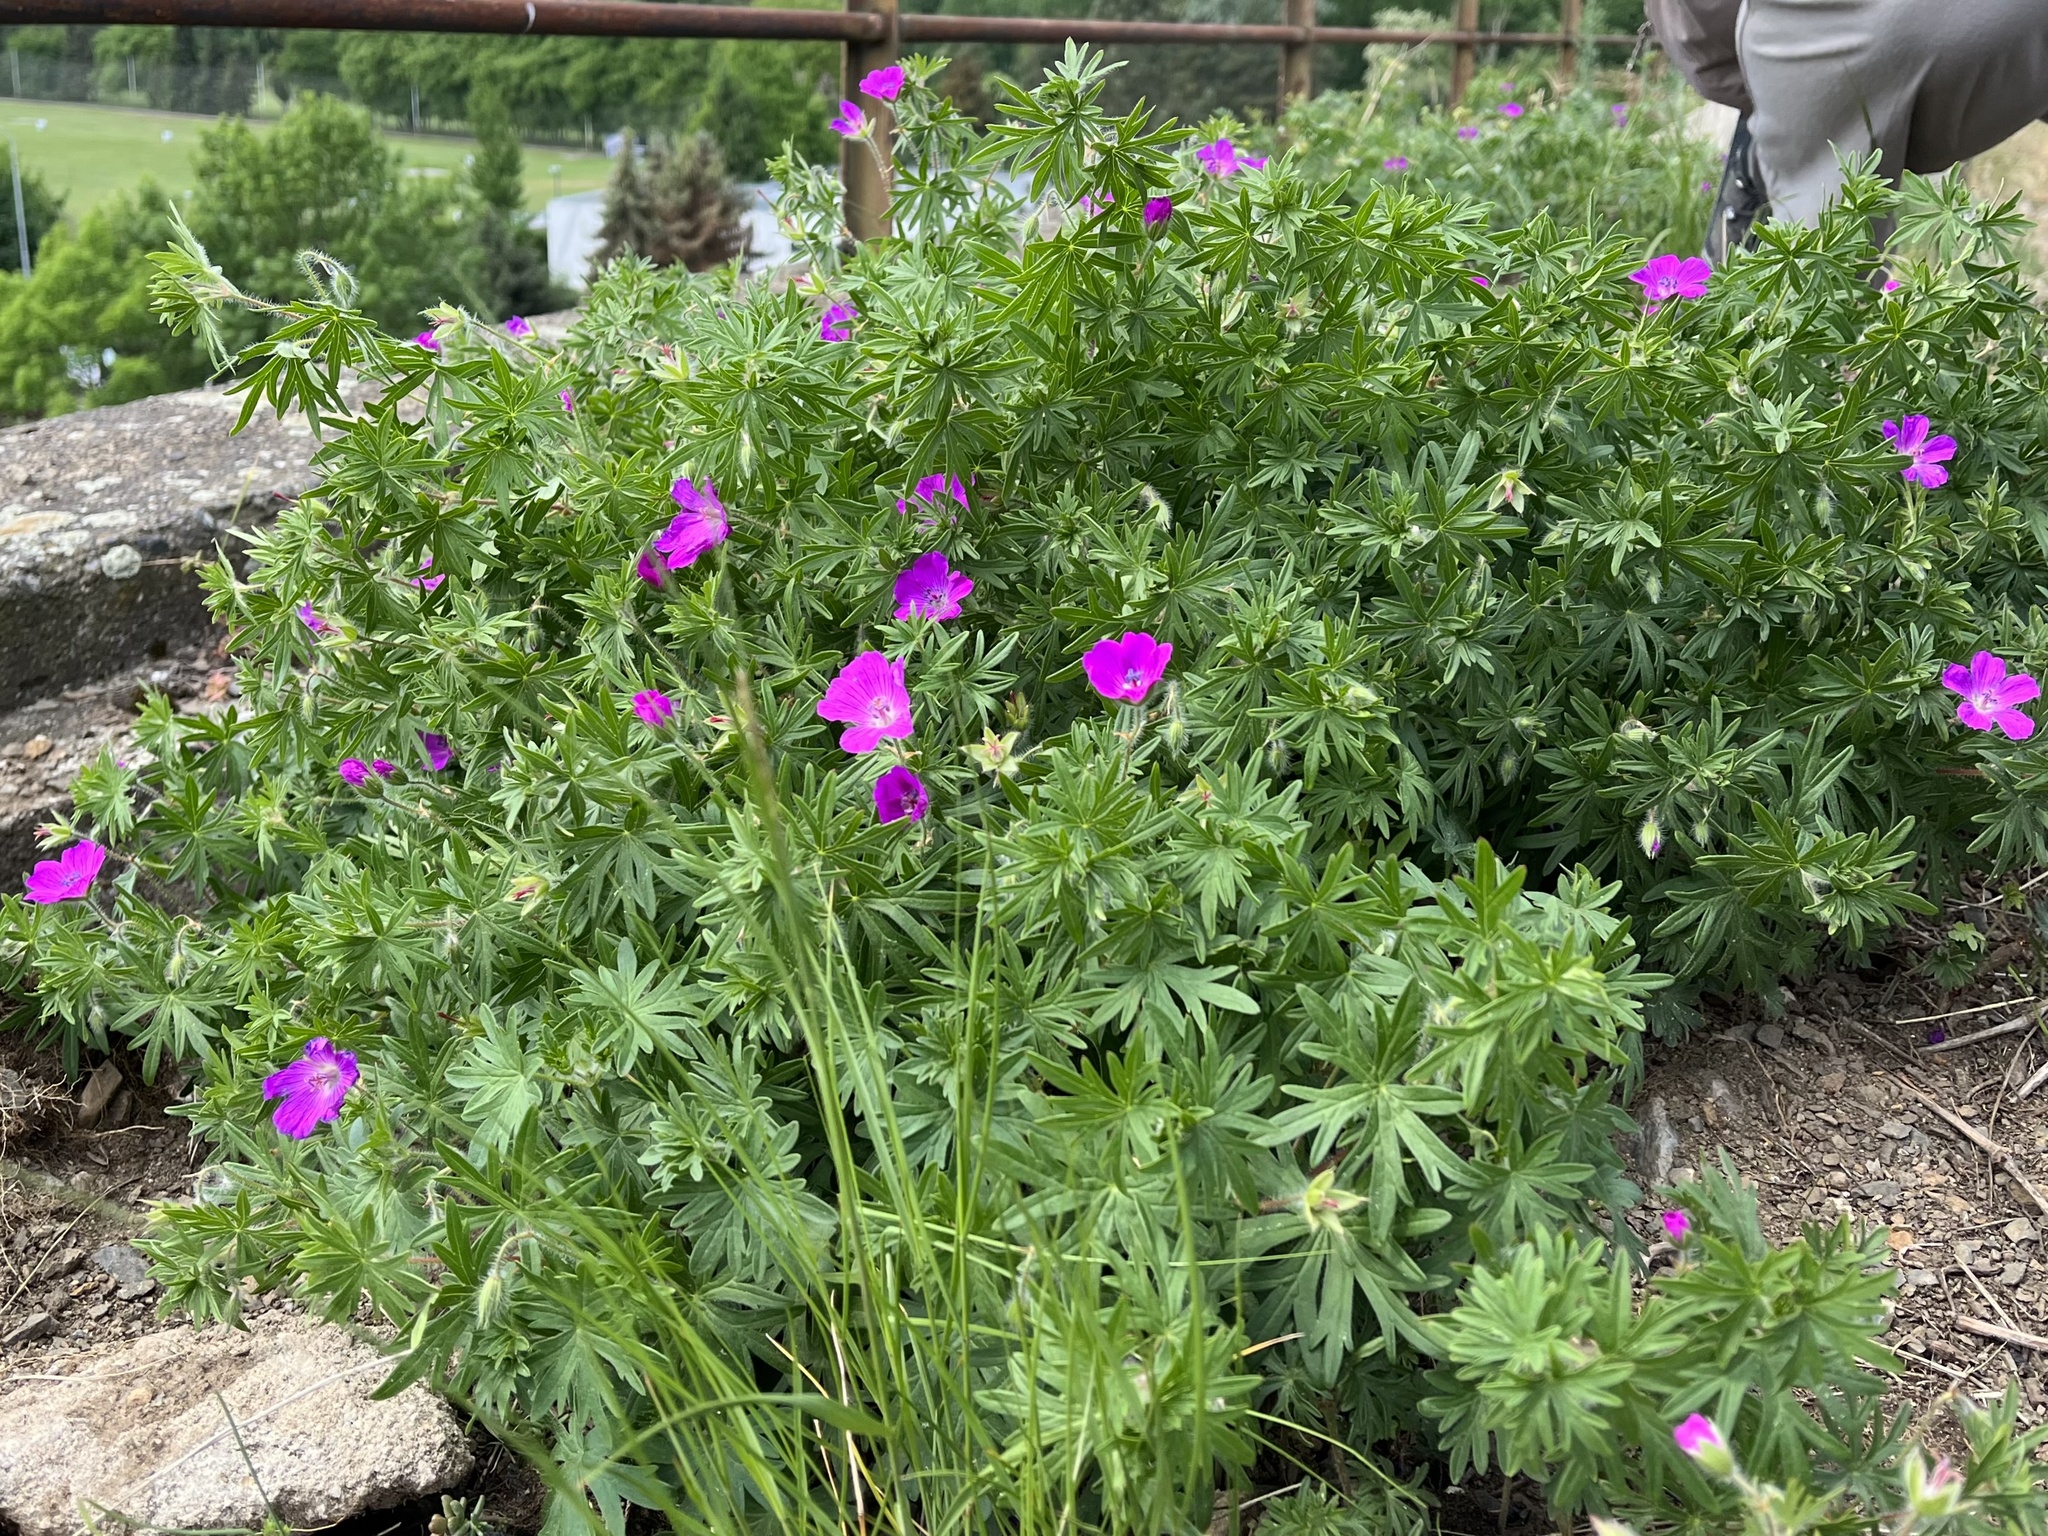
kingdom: Plantae
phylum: Tracheophyta
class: Magnoliopsida
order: Geraniales
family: Geraniaceae
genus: Geranium
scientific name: Geranium sanguineum
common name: Bloody crane's-bill
